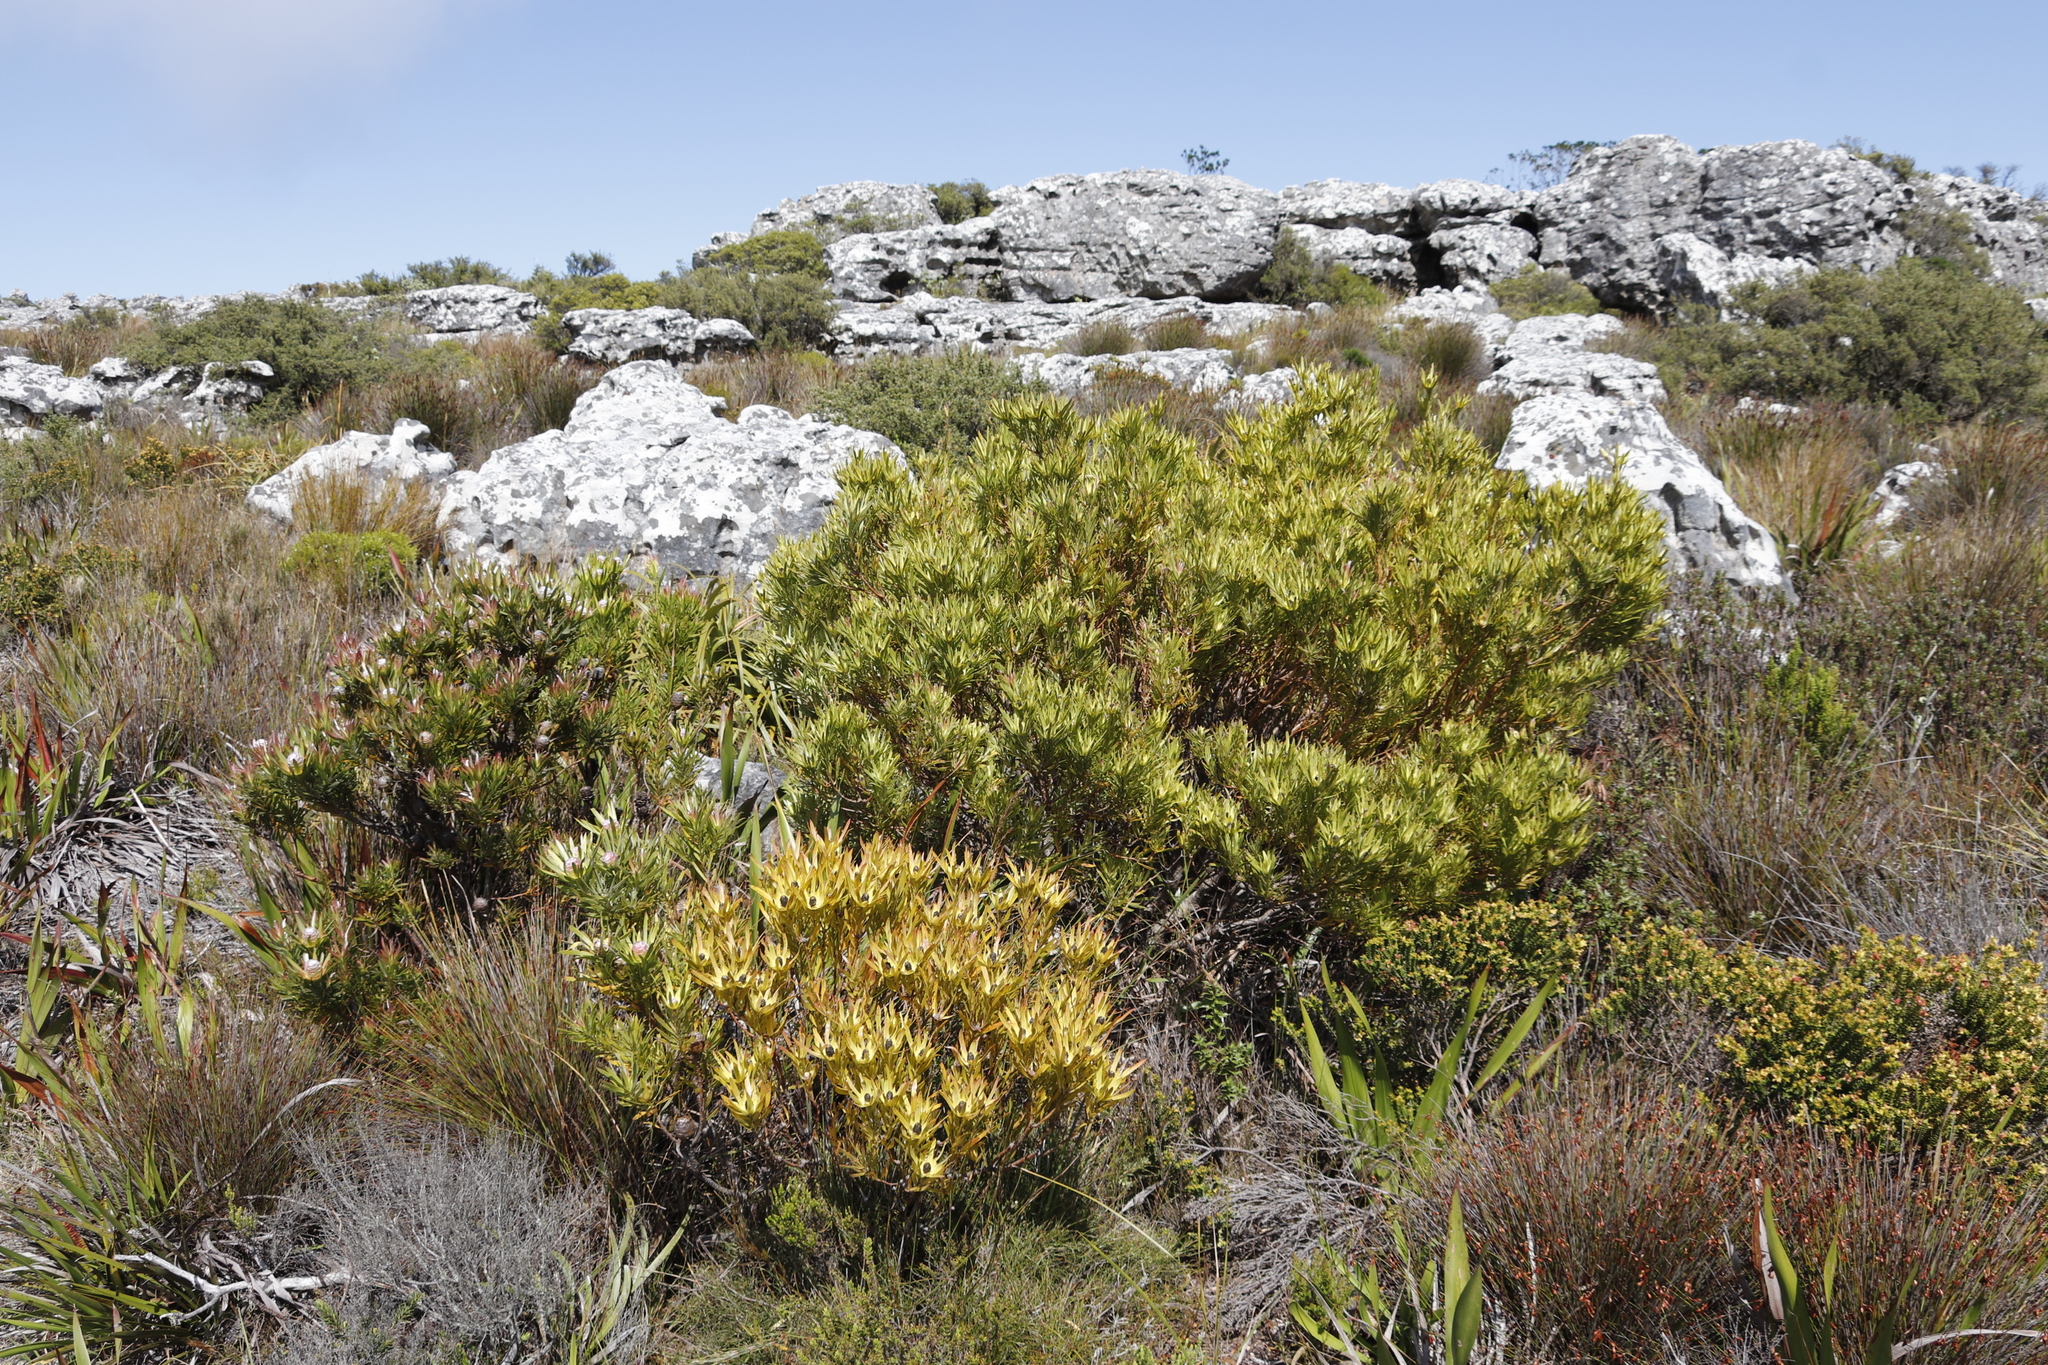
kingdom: Plantae
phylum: Tracheophyta
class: Magnoliopsida
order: Proteales
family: Proteaceae
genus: Leucadendron
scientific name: Leucadendron xanthoconus
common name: Sickle-leaf conebush
